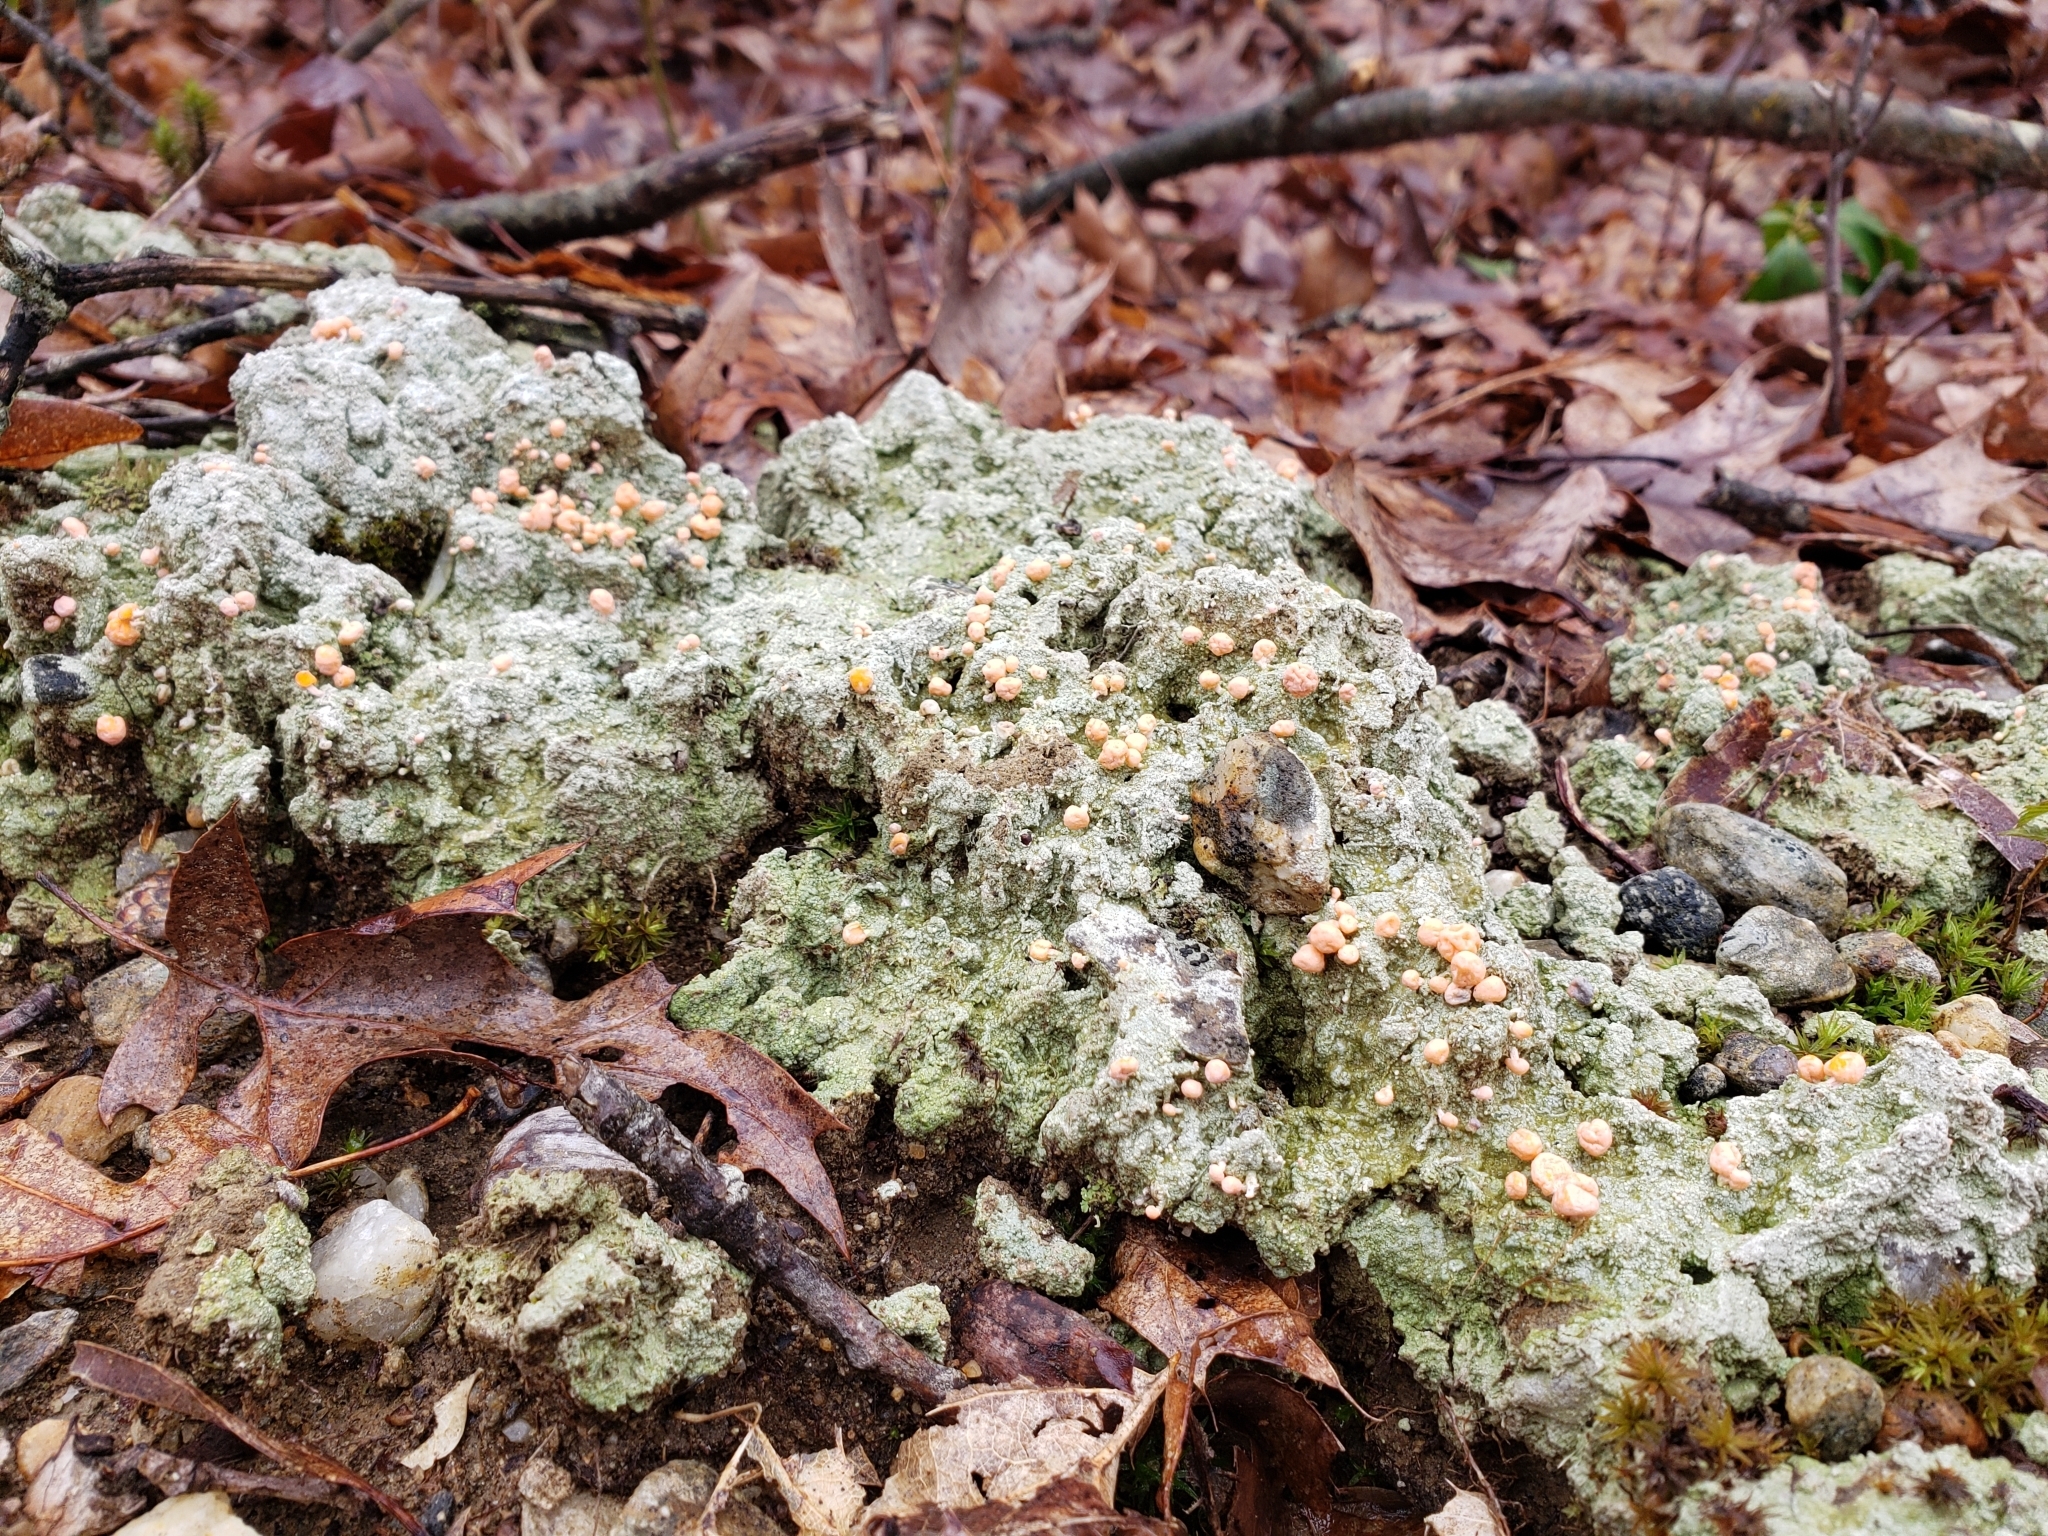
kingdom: Fungi
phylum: Ascomycota
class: Lecanoromycetes
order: Pertusariales
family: Icmadophilaceae
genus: Dibaeis
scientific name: Dibaeis baeomyces
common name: Pink earth lichen
